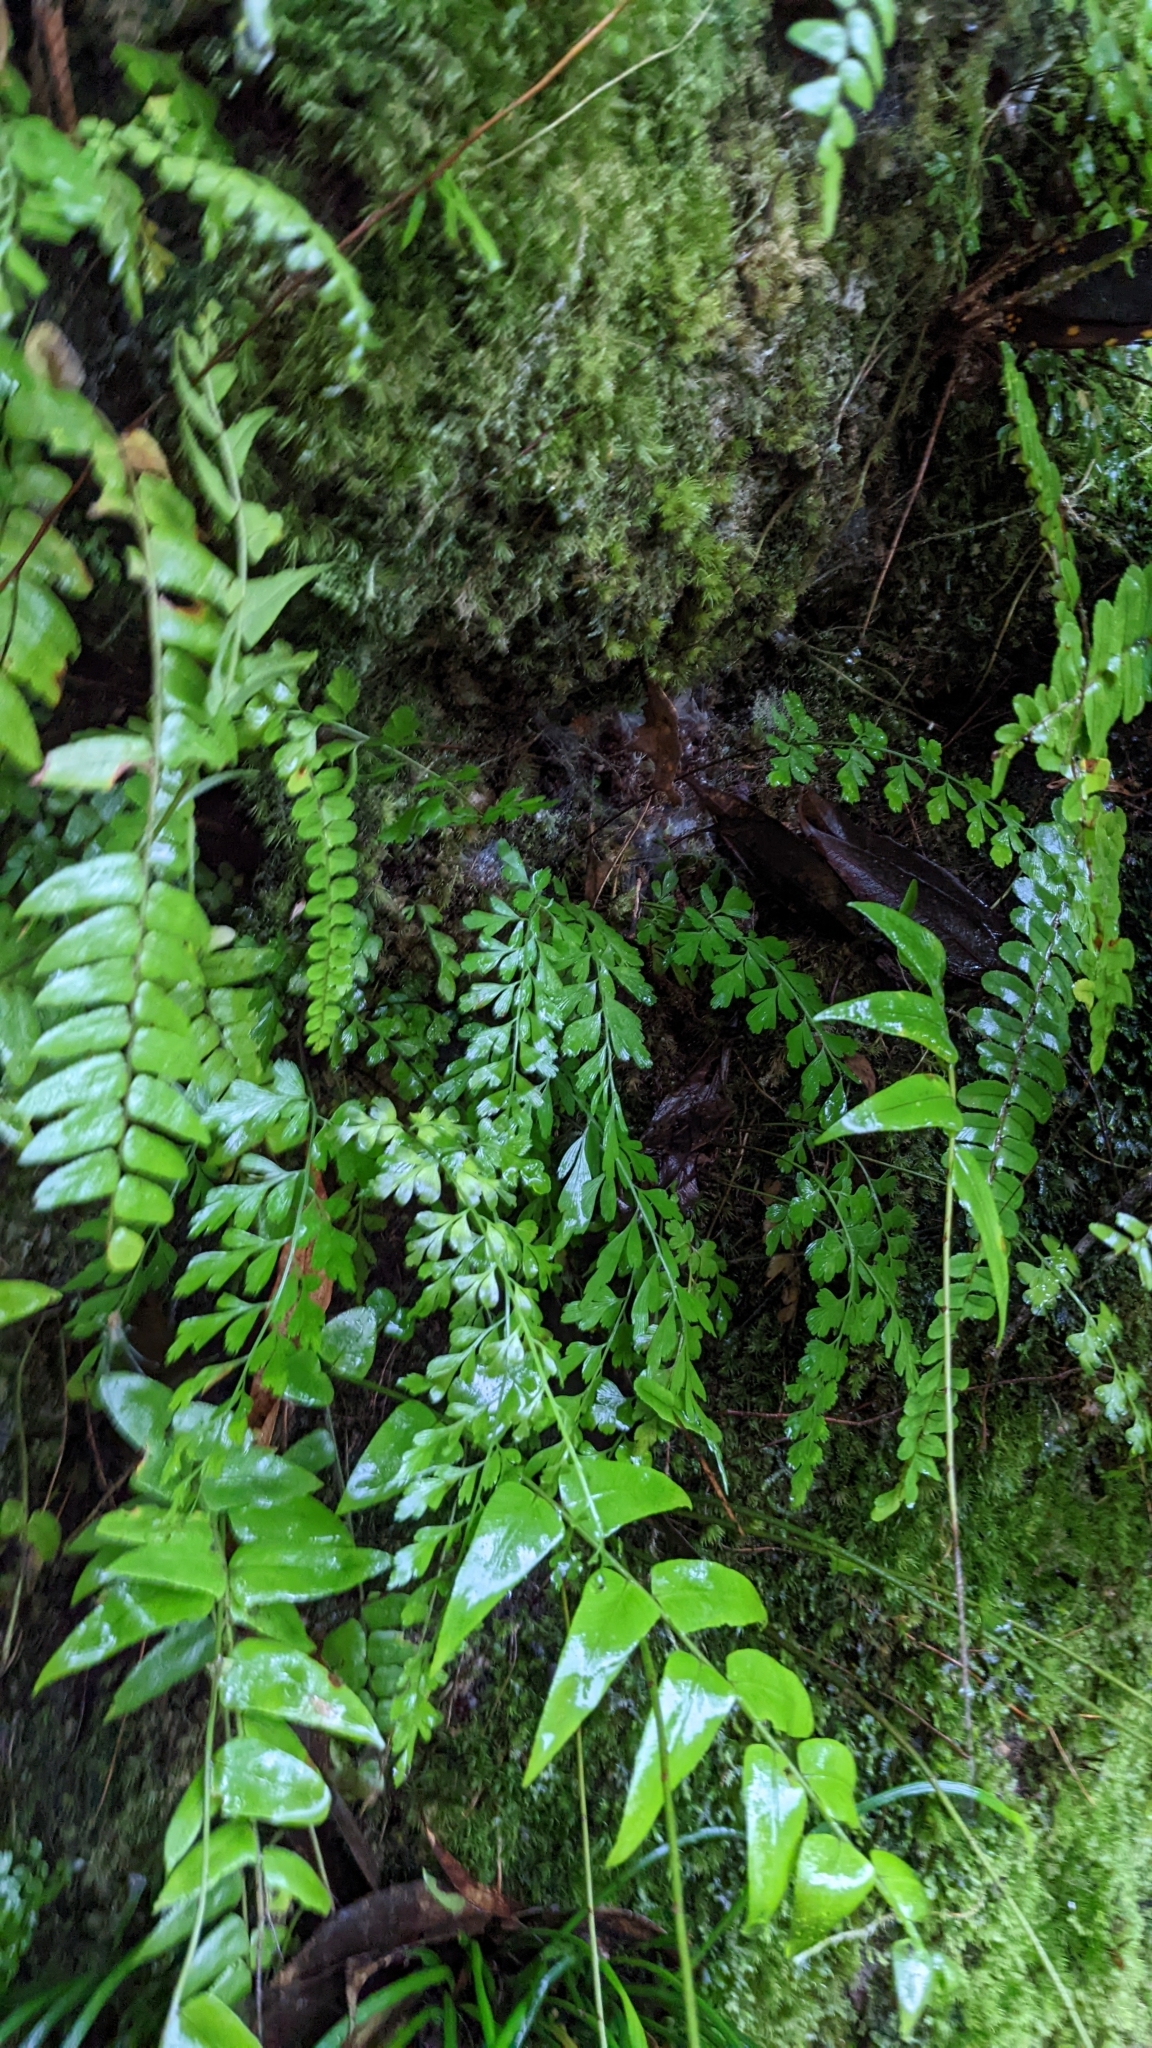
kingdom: Plantae
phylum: Tracheophyta
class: Polypodiopsida
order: Polypodiales
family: Aspleniaceae
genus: Asplenium
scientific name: Asplenium pseudolaserpitiifolium
